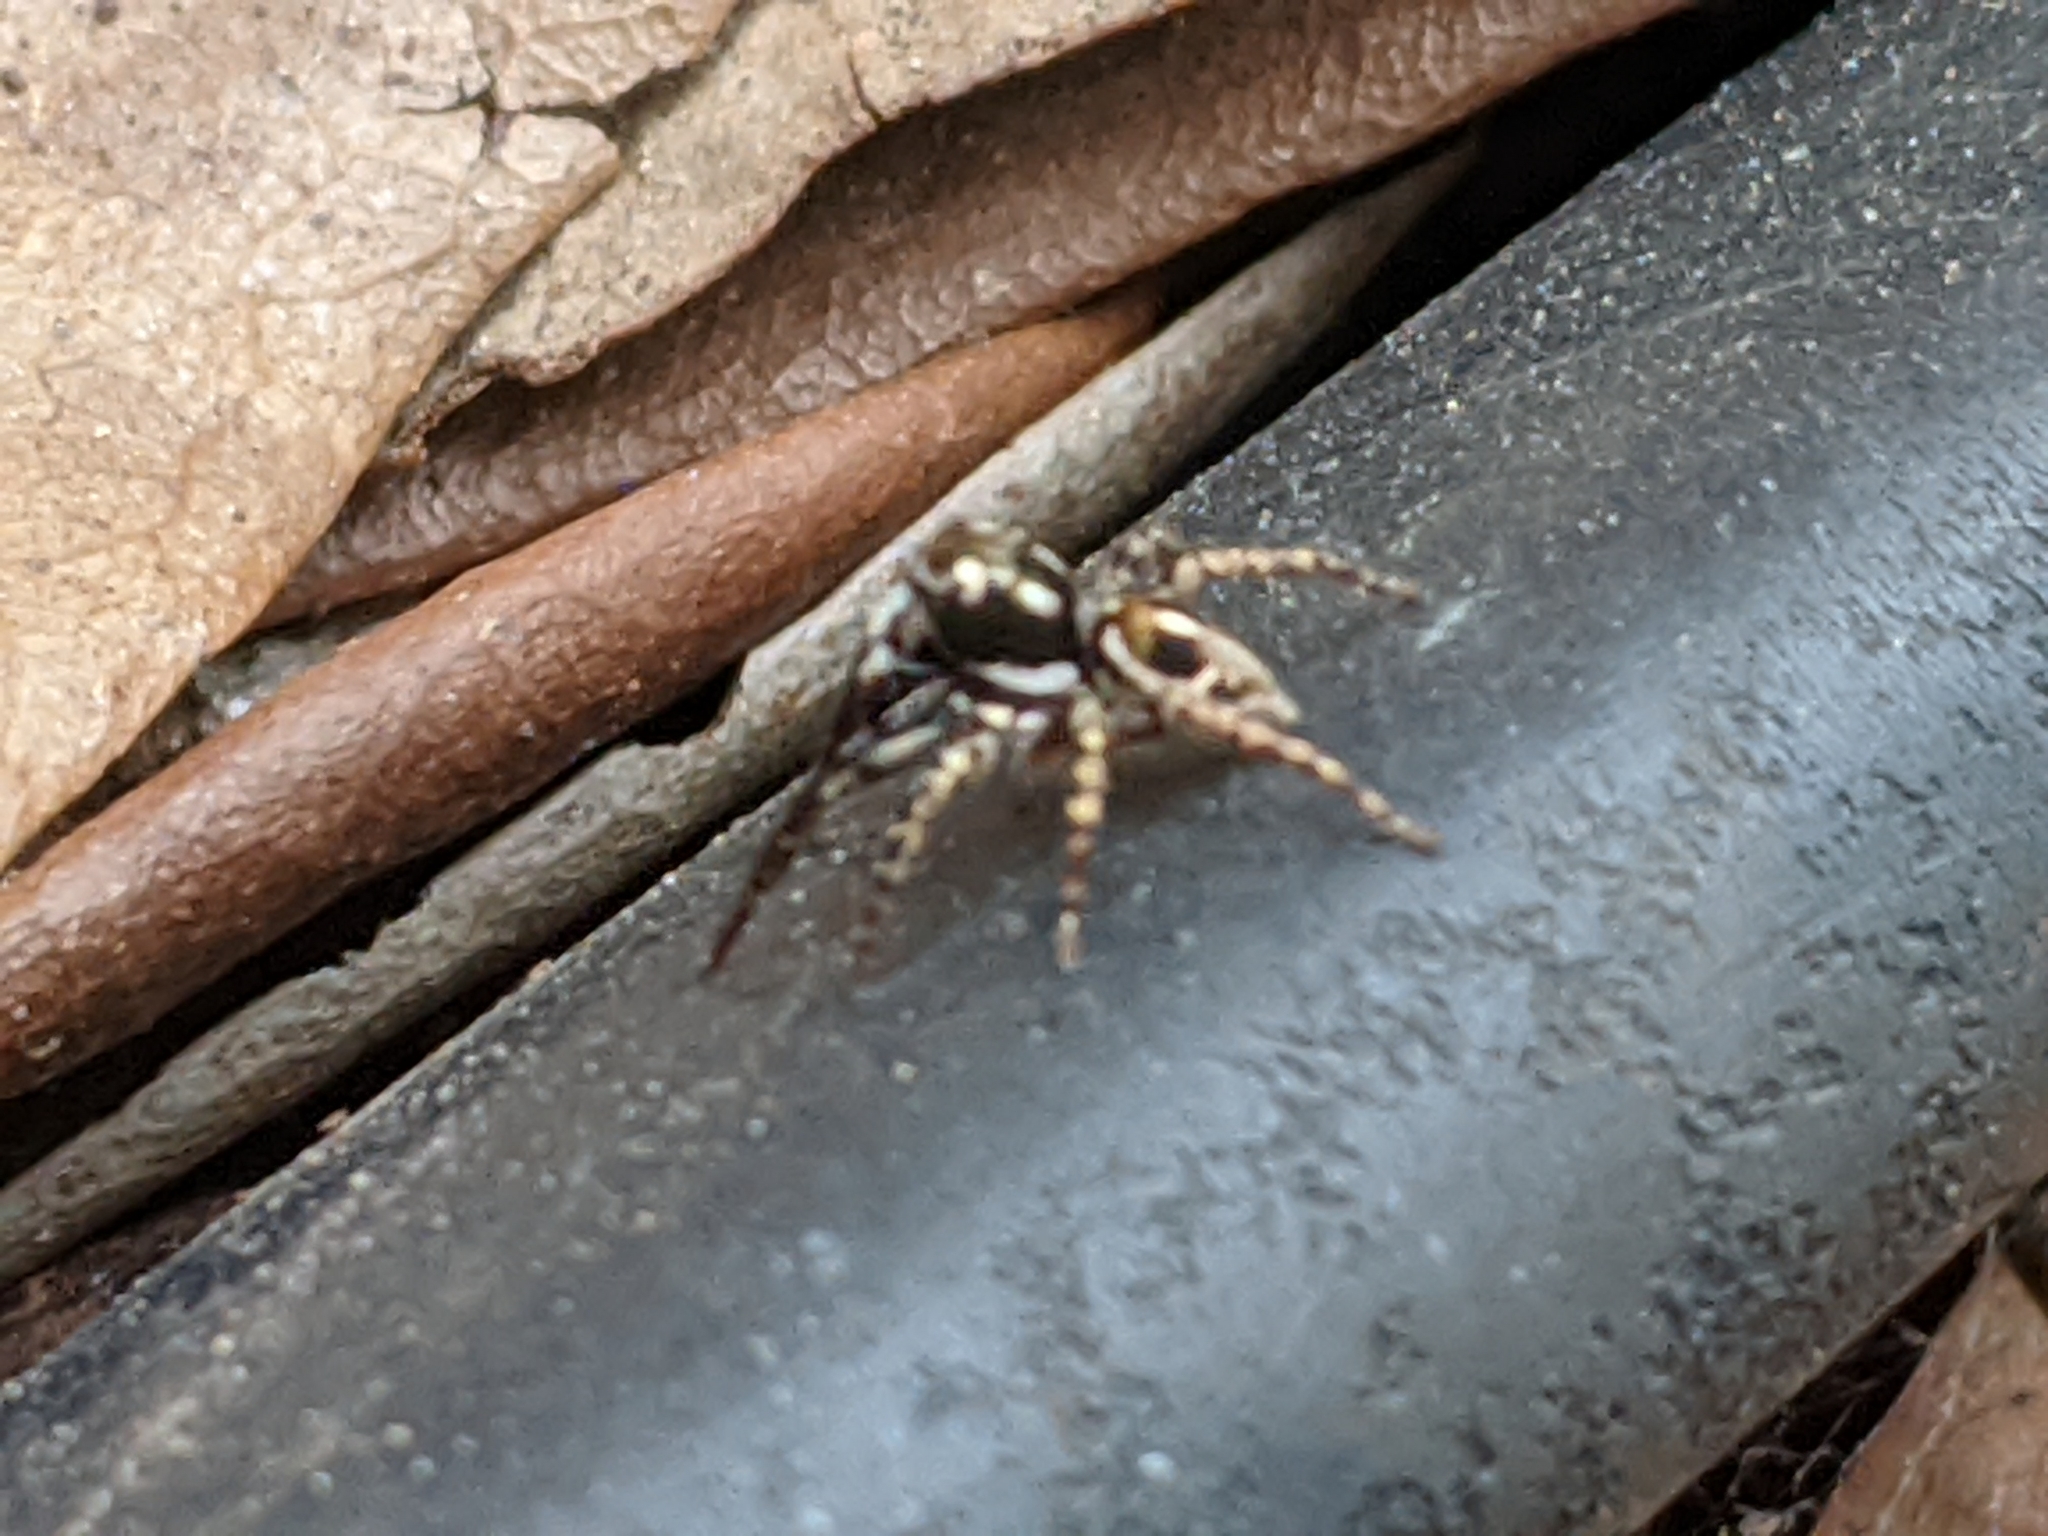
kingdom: Animalia
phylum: Arthropoda
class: Arachnida
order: Araneae
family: Salticidae
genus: Anasaitis
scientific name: Anasaitis canosa
